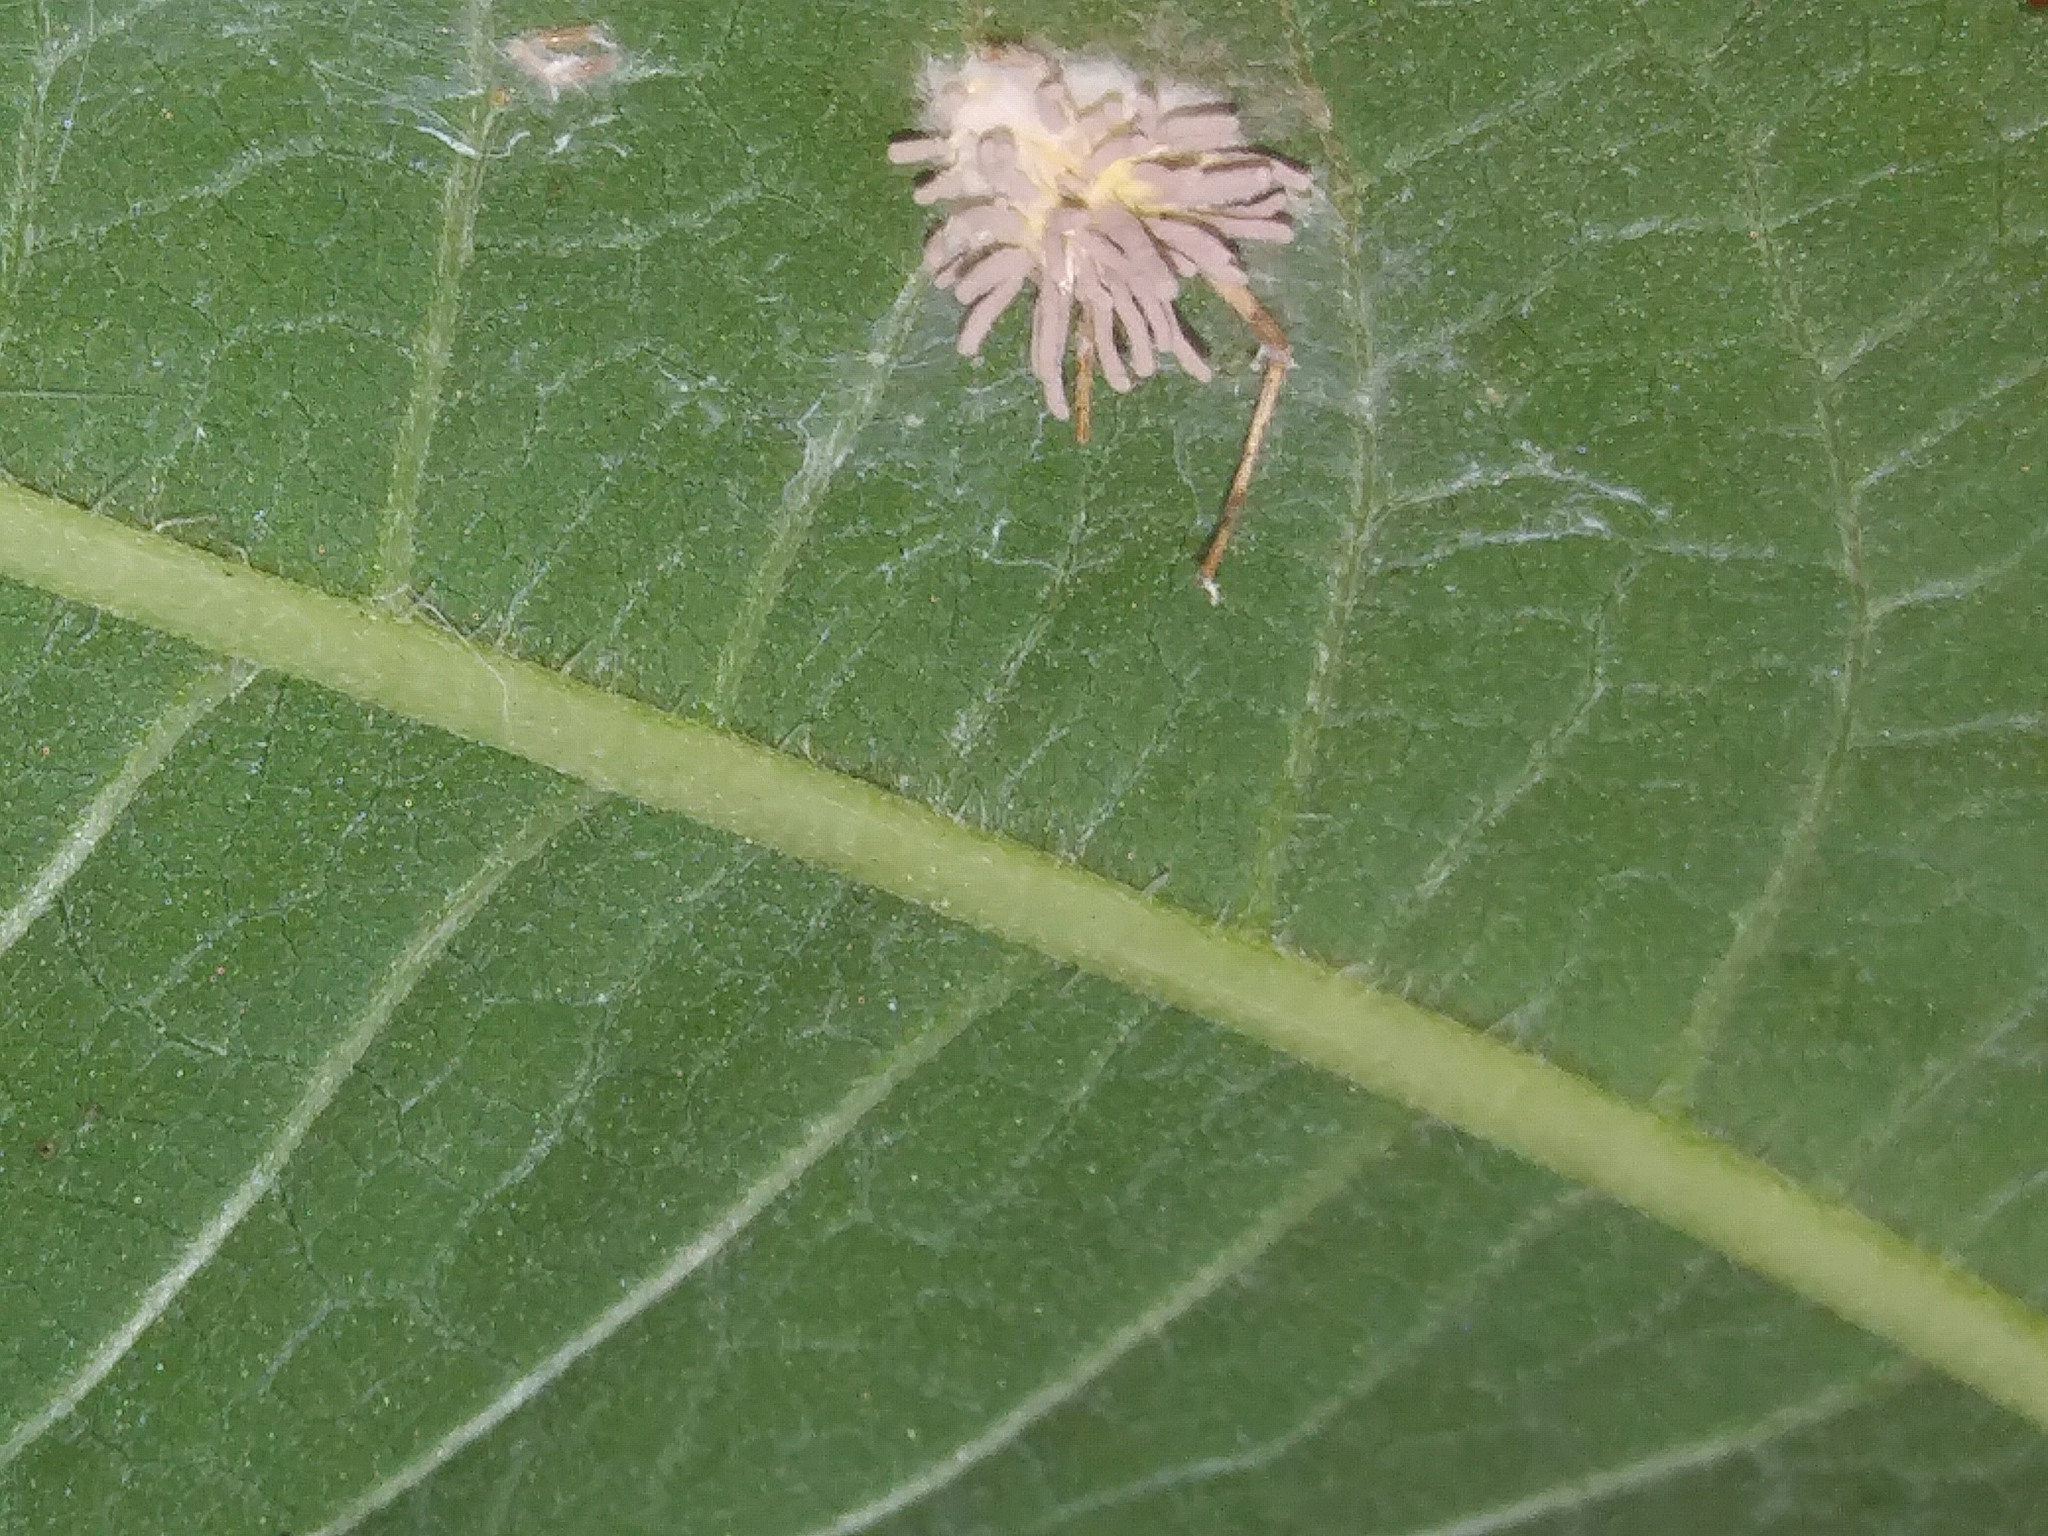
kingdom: Fungi
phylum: Ascomycota
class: Sordariomycetes
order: Hypocreales
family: Cordycipitaceae
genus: Gibellula
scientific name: Gibellula arachnophila
